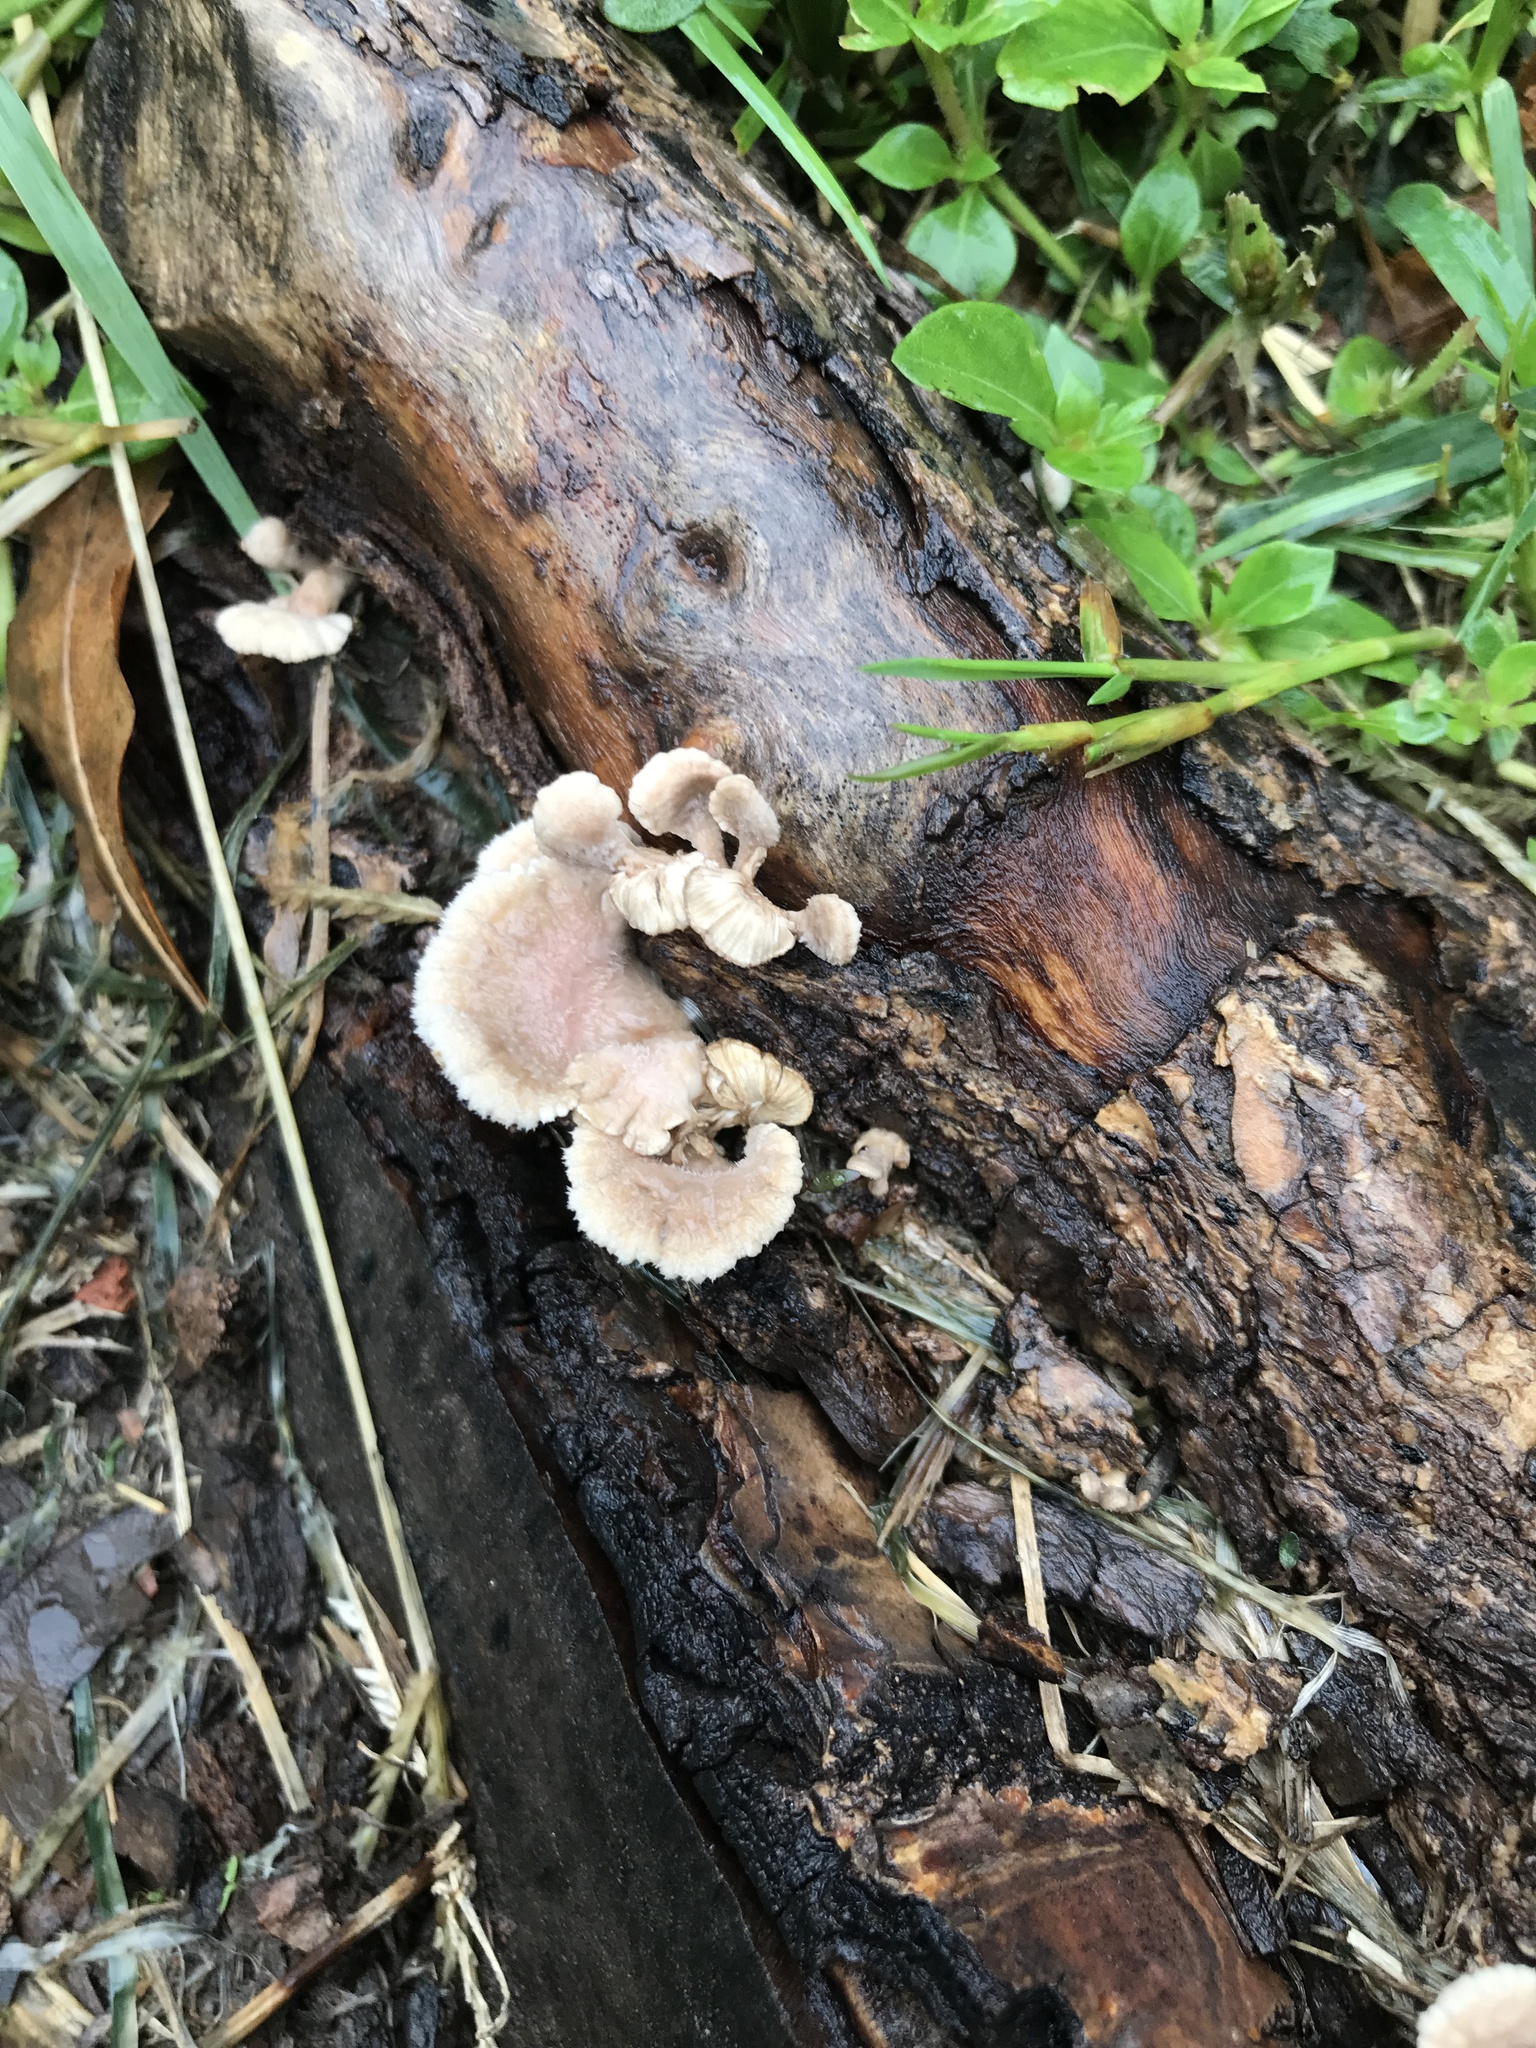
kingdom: Fungi
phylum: Basidiomycota
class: Agaricomycetes
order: Agaricales
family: Schizophyllaceae
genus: Schizophyllum
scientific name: Schizophyllum commune
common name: Common porecrust
